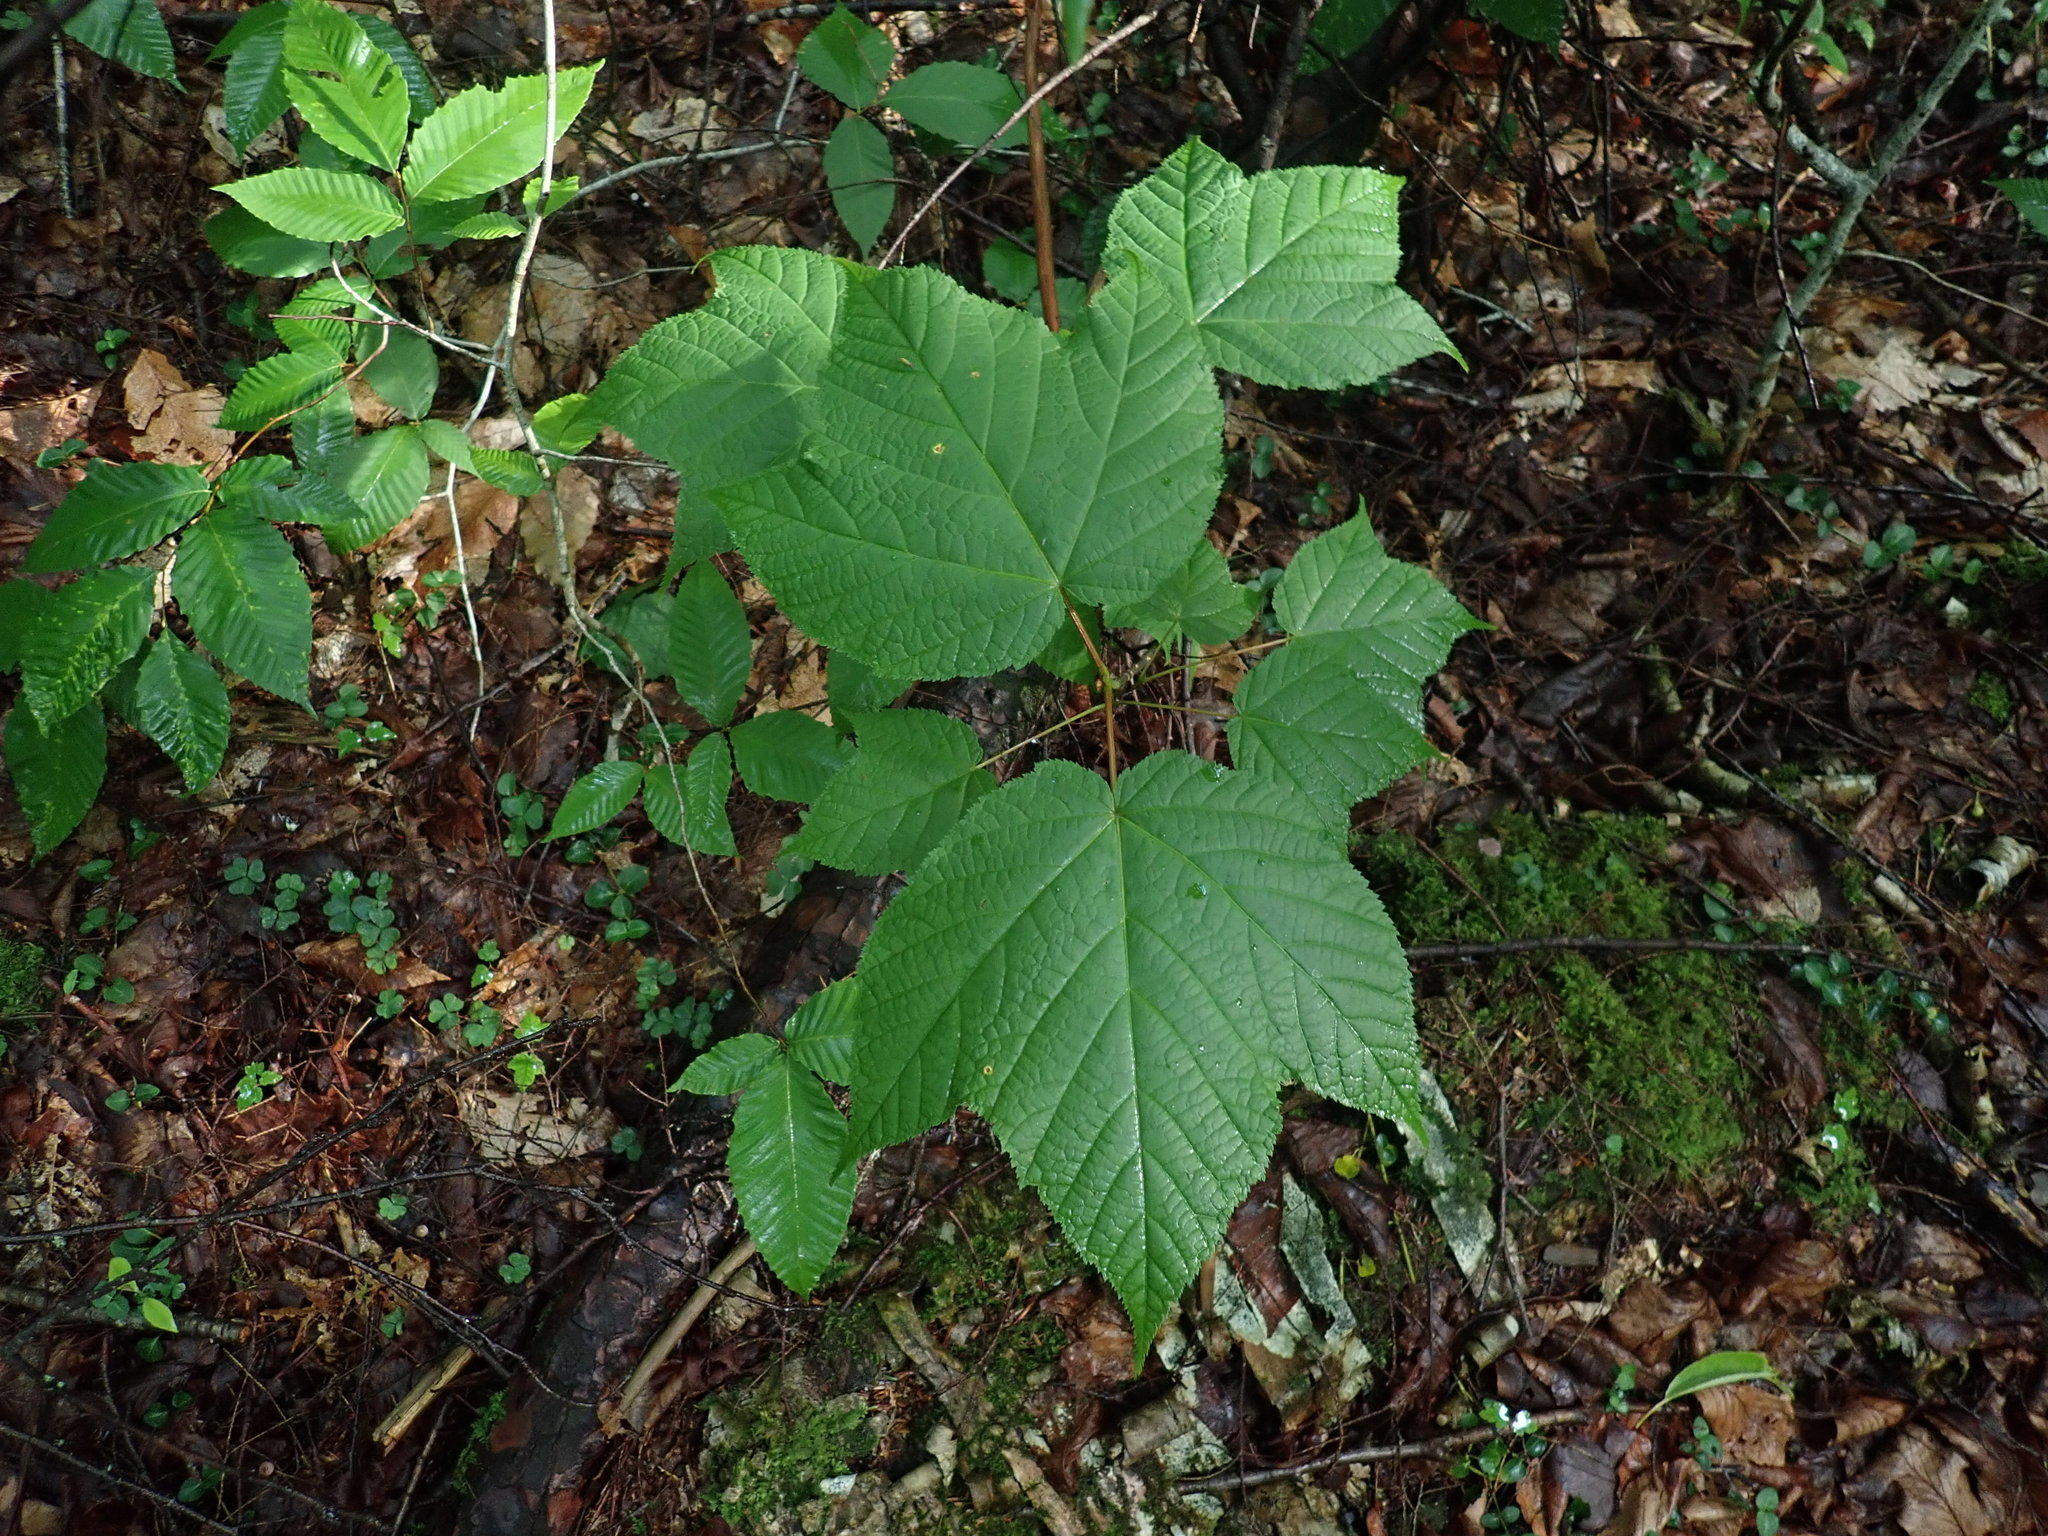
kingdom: Plantae
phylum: Tracheophyta
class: Magnoliopsida
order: Sapindales
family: Sapindaceae
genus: Acer
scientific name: Acer pensylvanicum
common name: Moosewood
